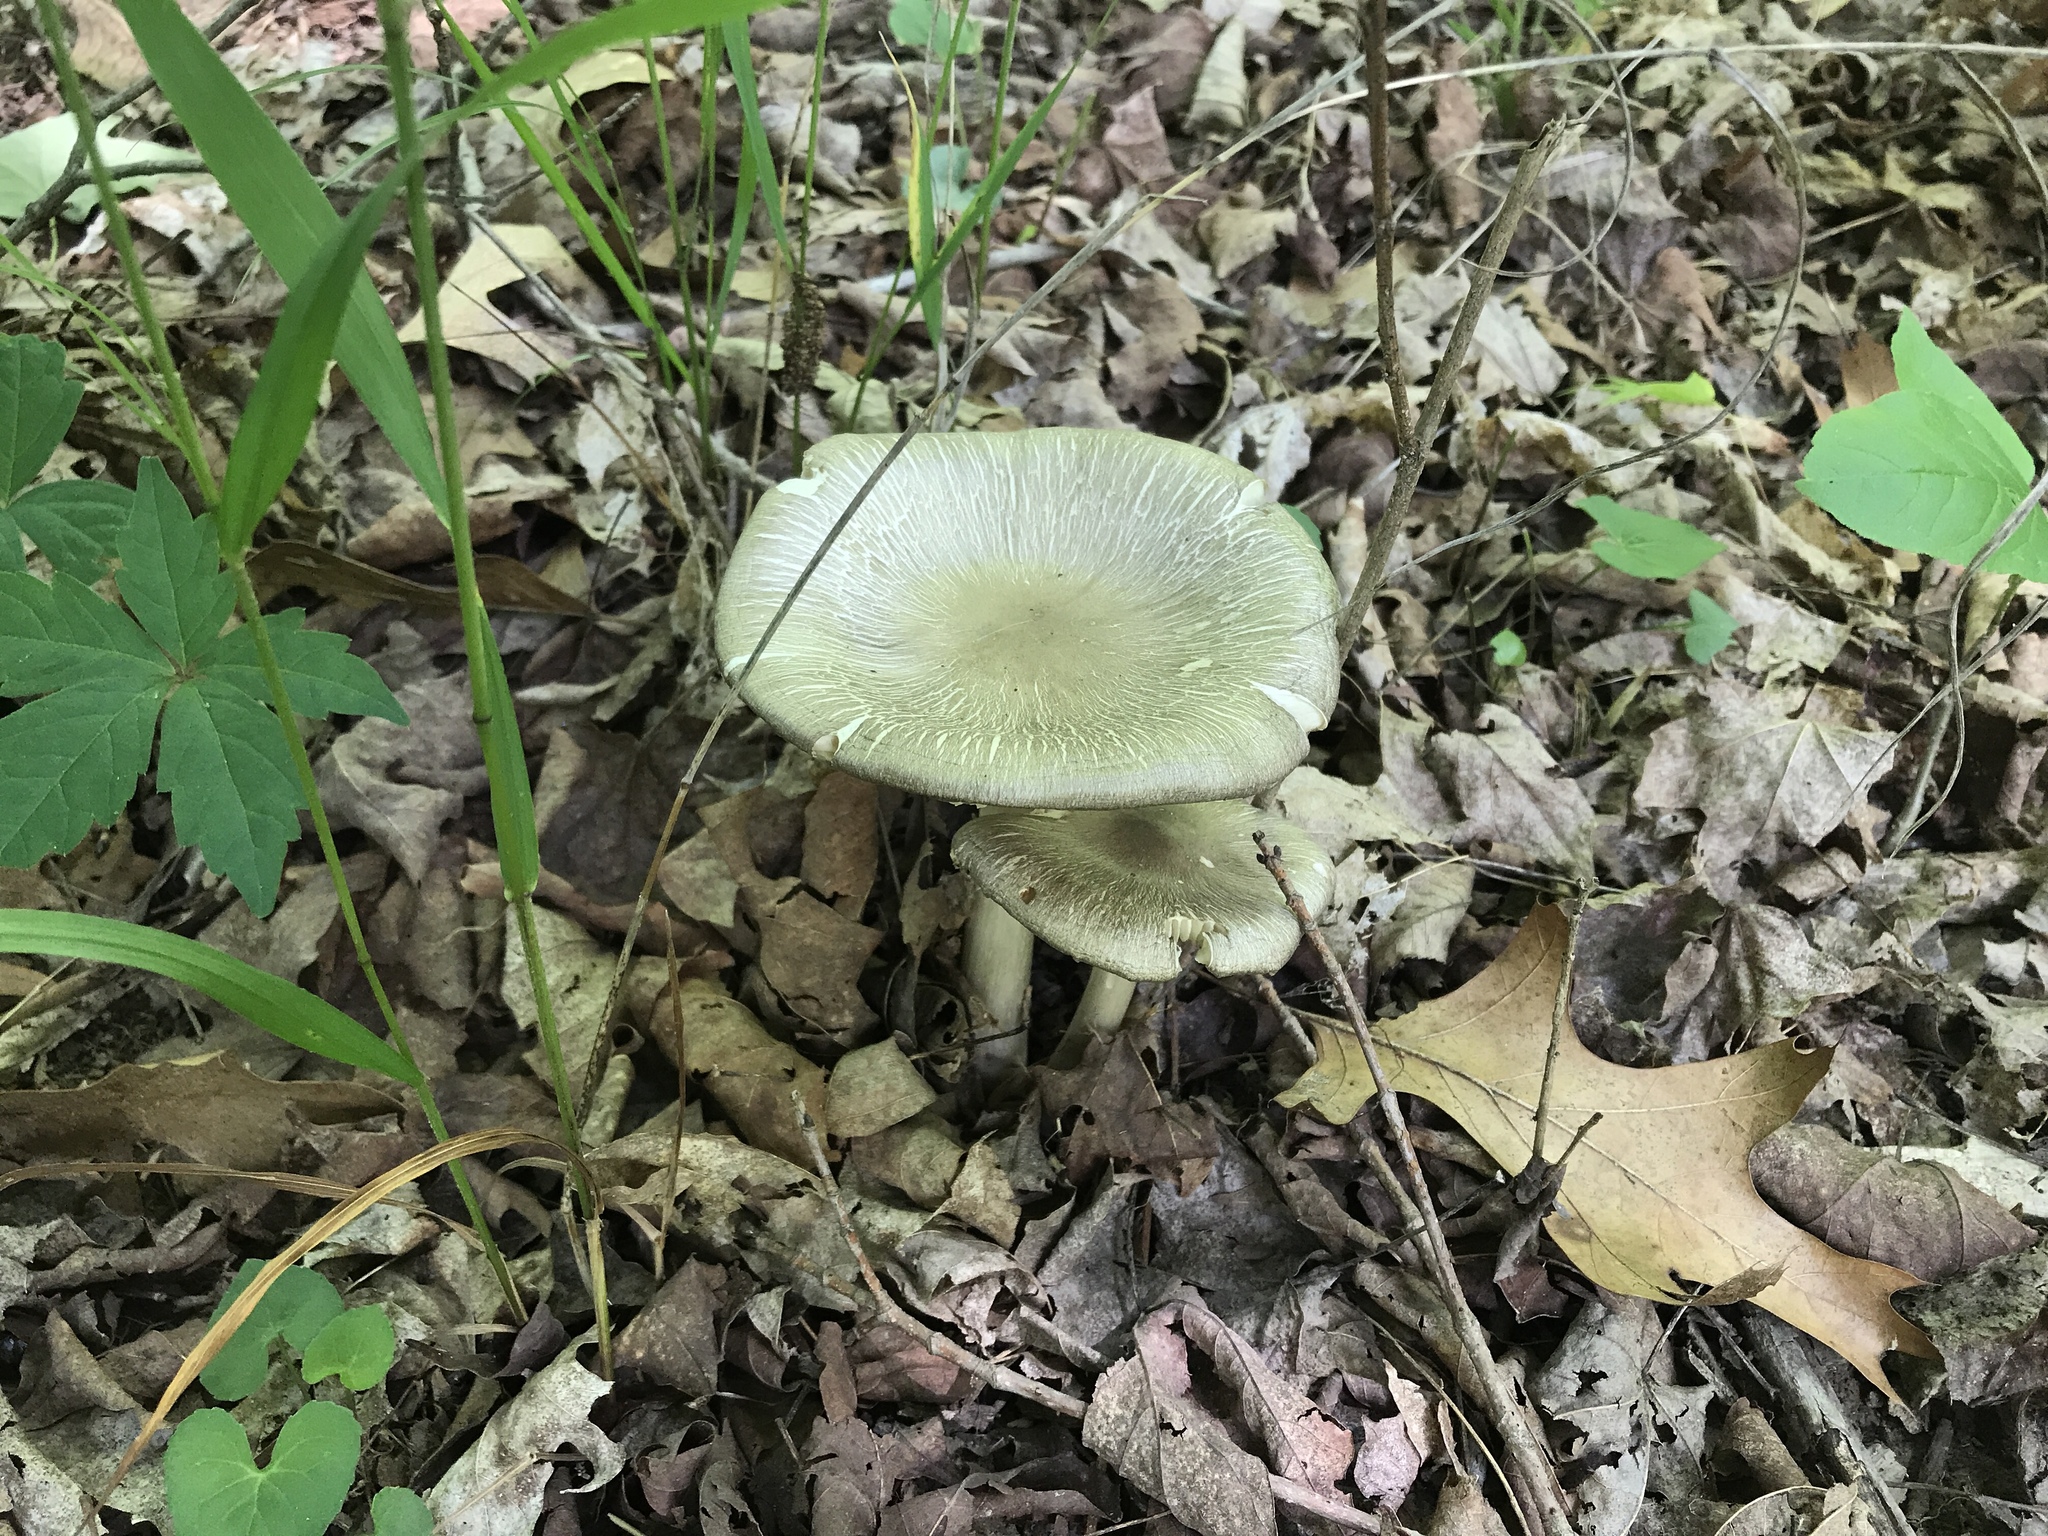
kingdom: Fungi
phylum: Basidiomycota
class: Agaricomycetes
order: Agaricales
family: Tricholomataceae
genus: Megacollybia
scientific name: Megacollybia rodmanii
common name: Eastern american platterful mushroom
